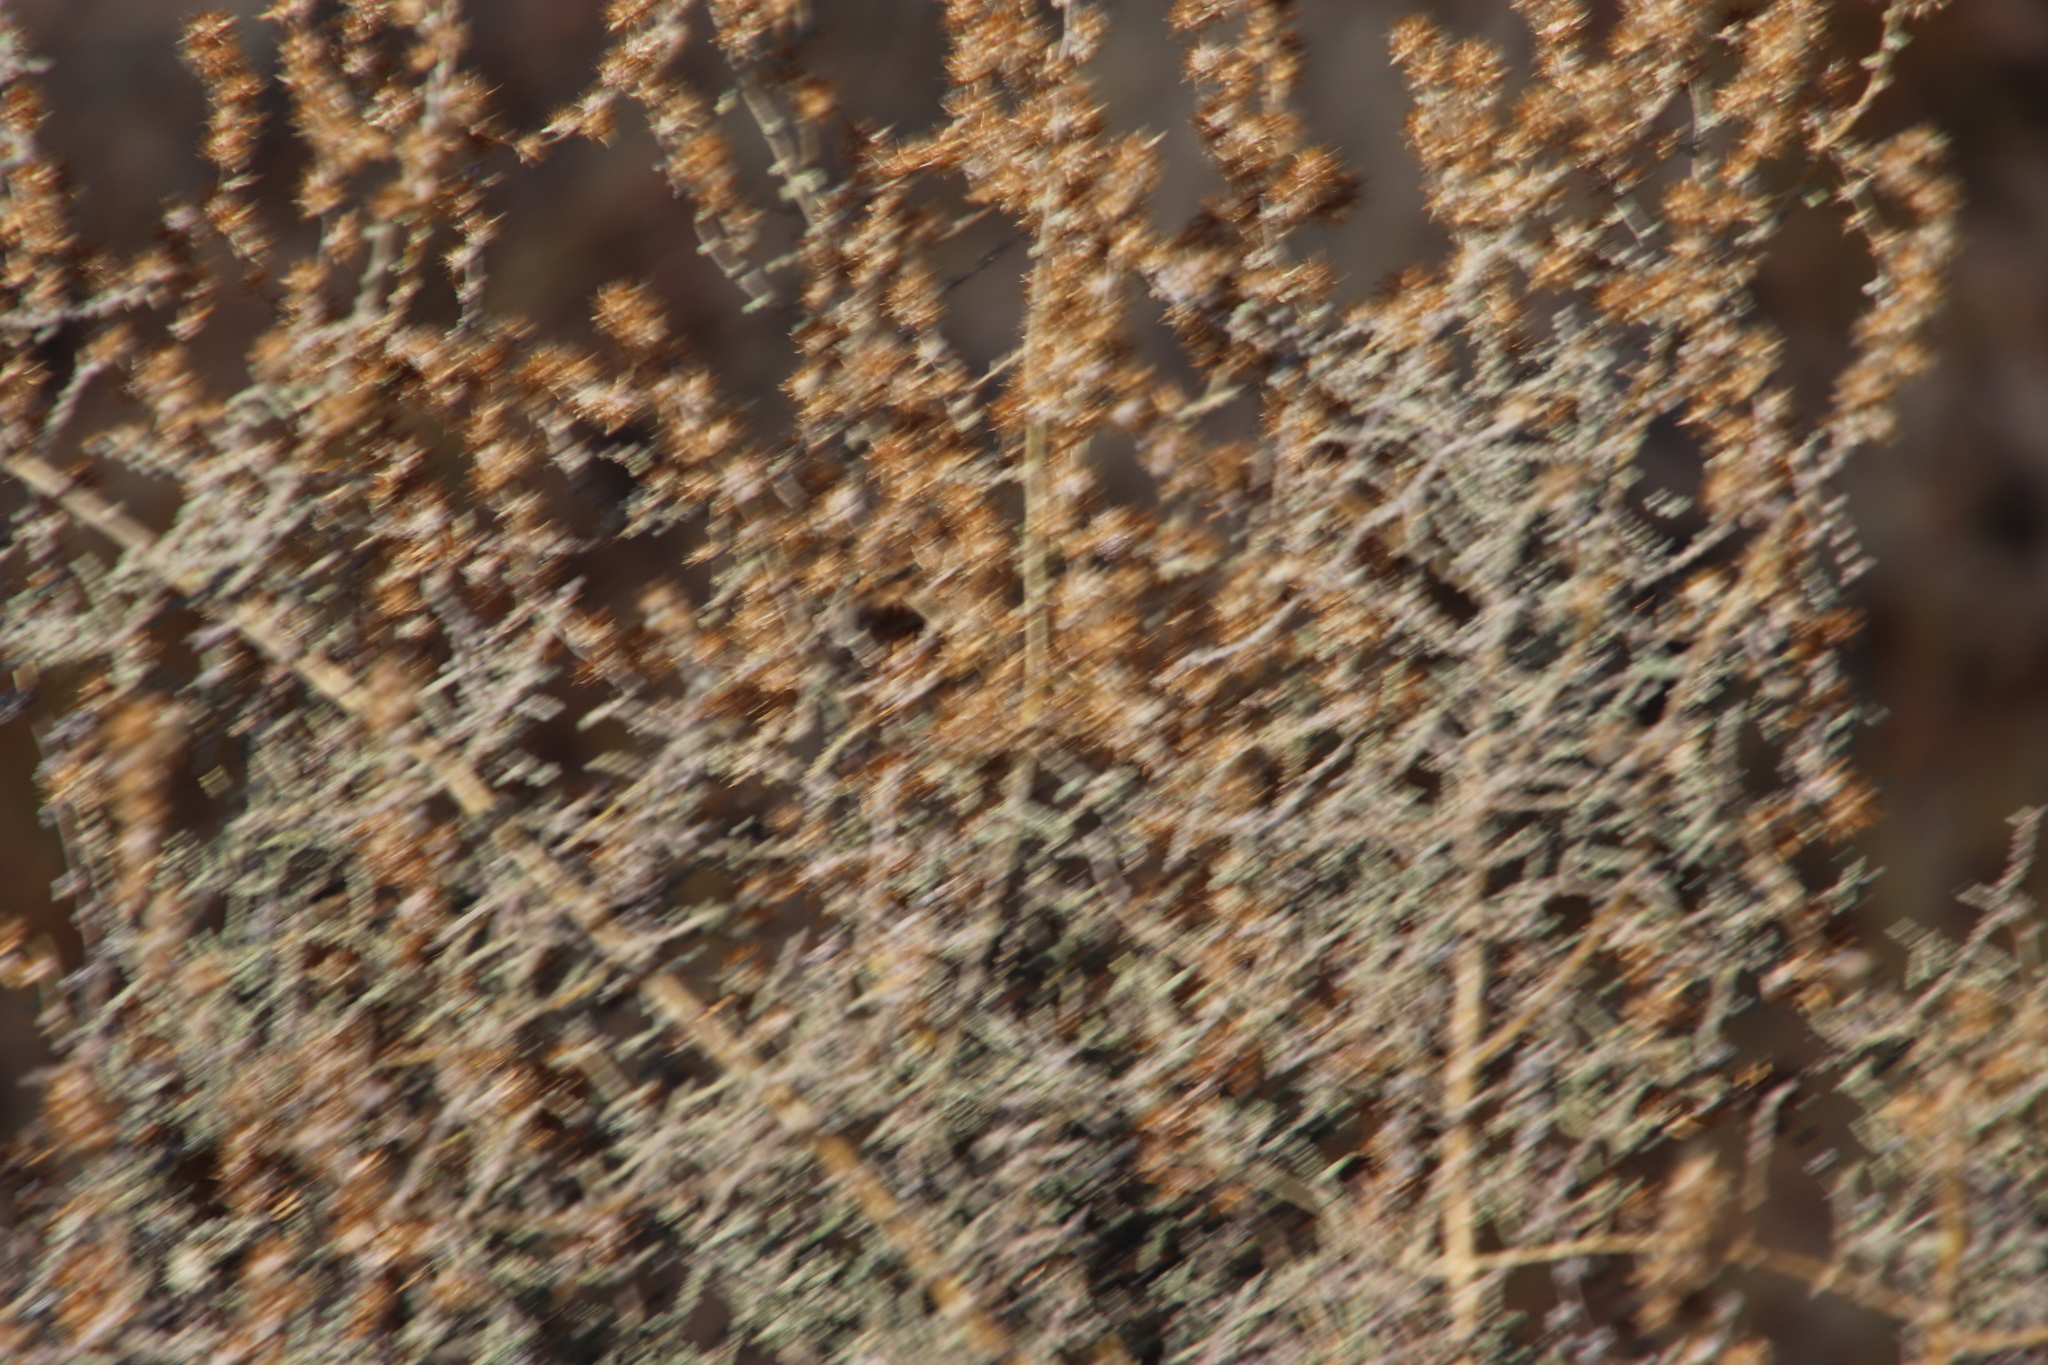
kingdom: Plantae
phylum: Tracheophyta
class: Magnoliopsida
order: Asterales
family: Asteraceae
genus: Seriphium
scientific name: Seriphium plumosum
